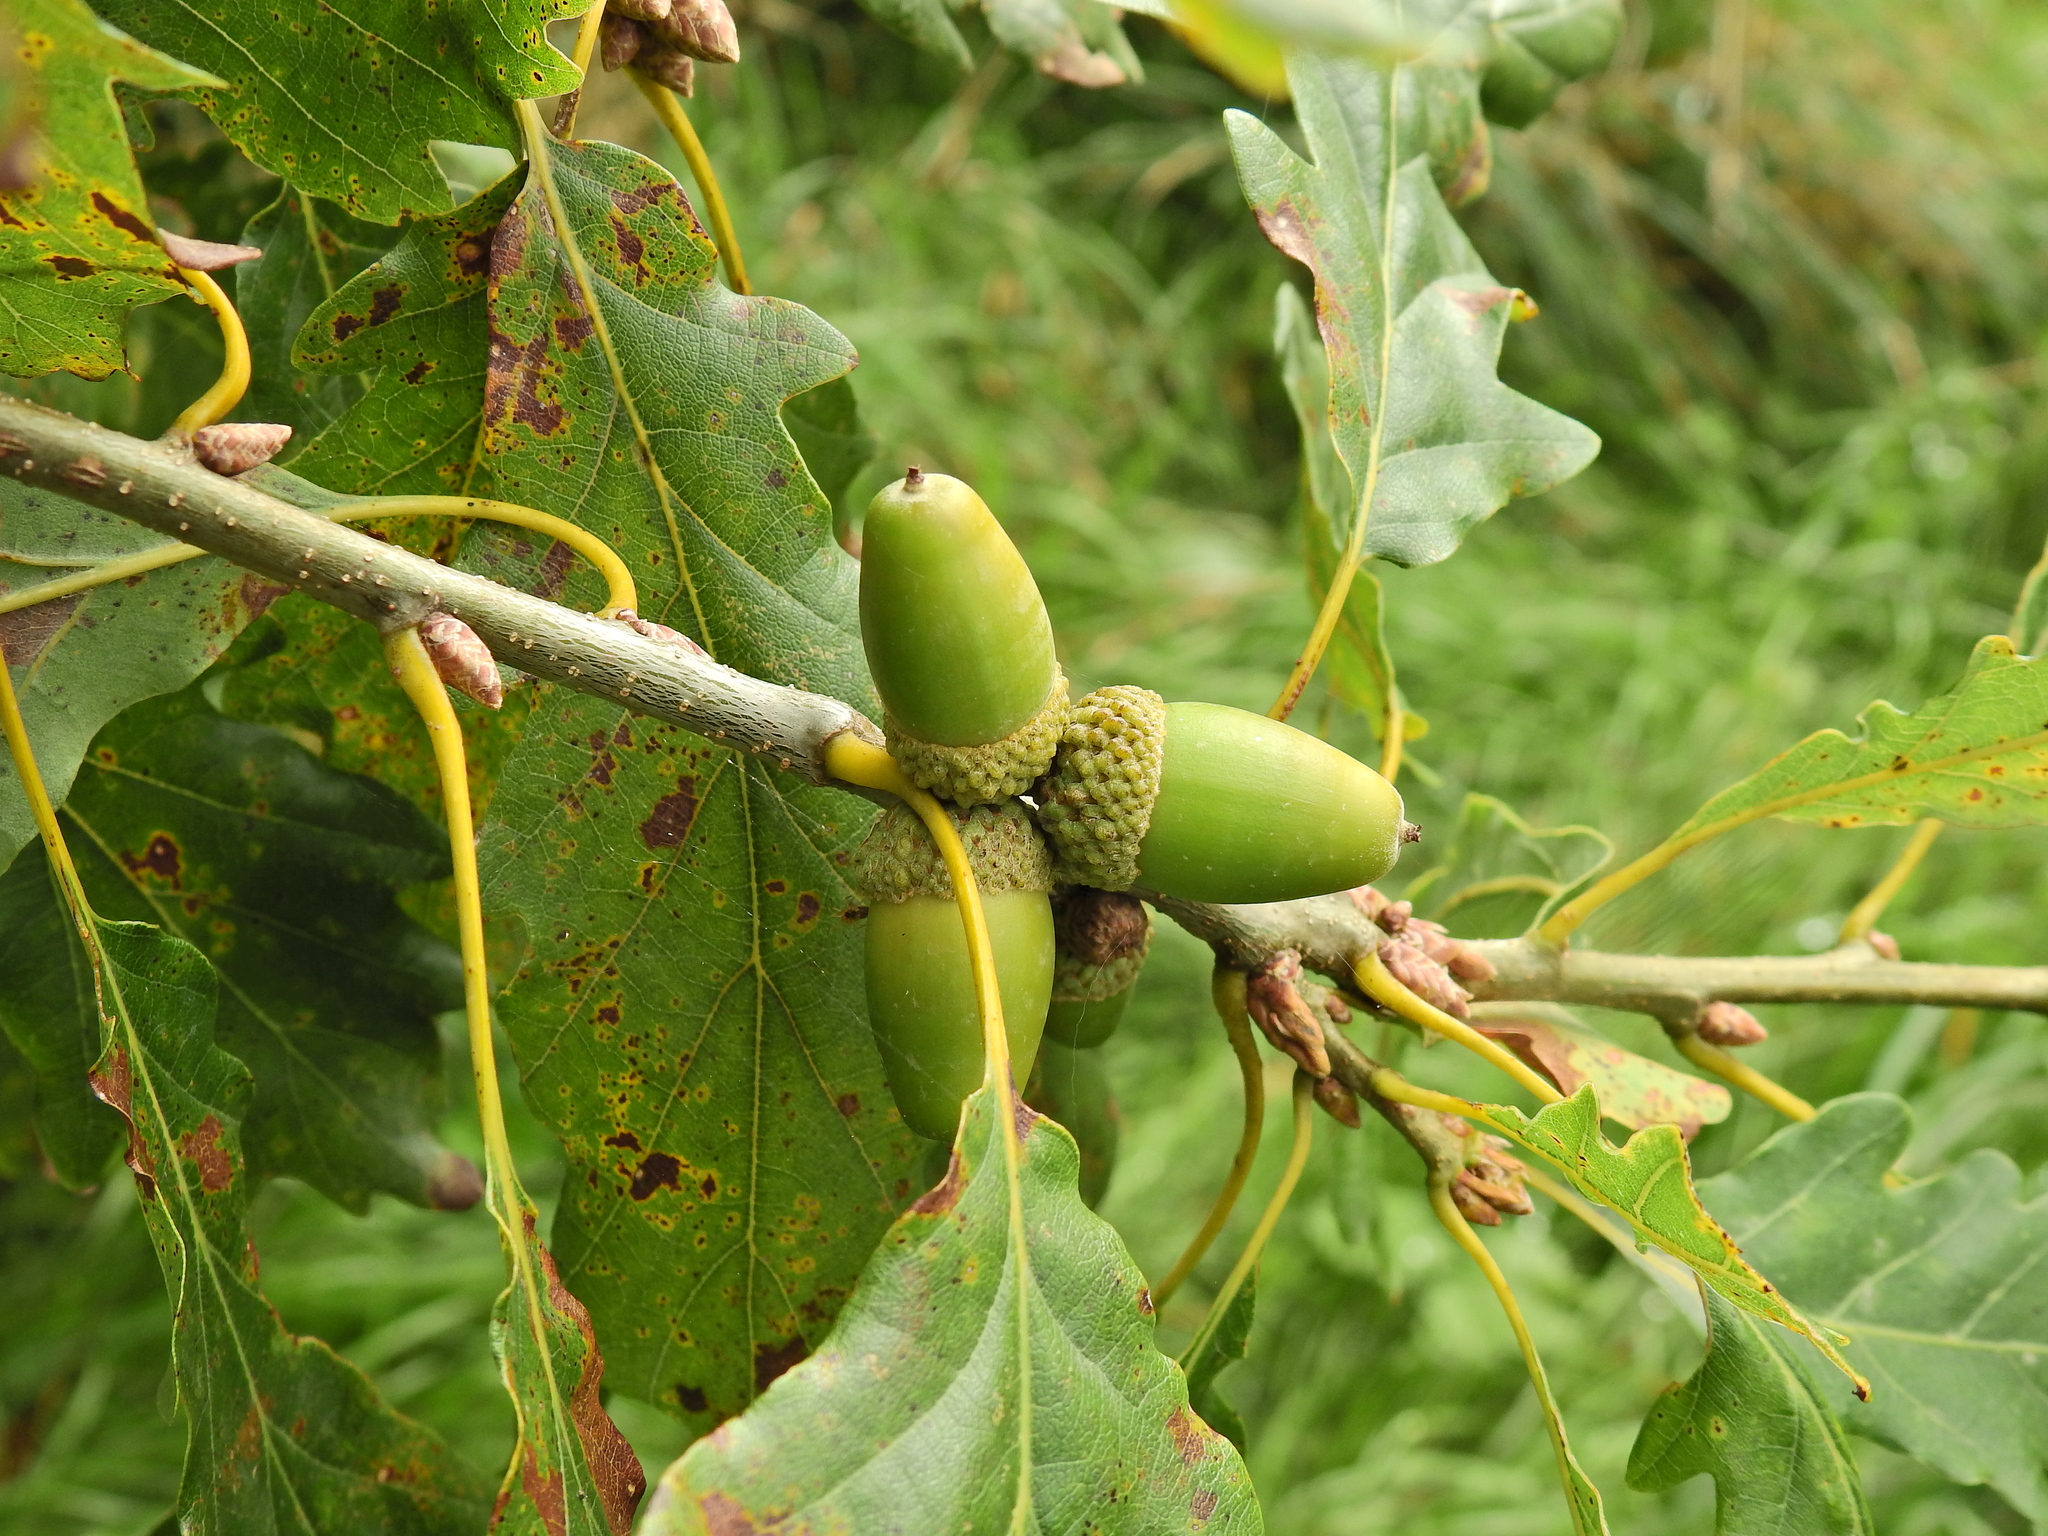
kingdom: Plantae
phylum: Tracheophyta
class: Magnoliopsida
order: Fagales
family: Fagaceae
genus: Quercus
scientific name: Quercus petraea
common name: Sessile oak
